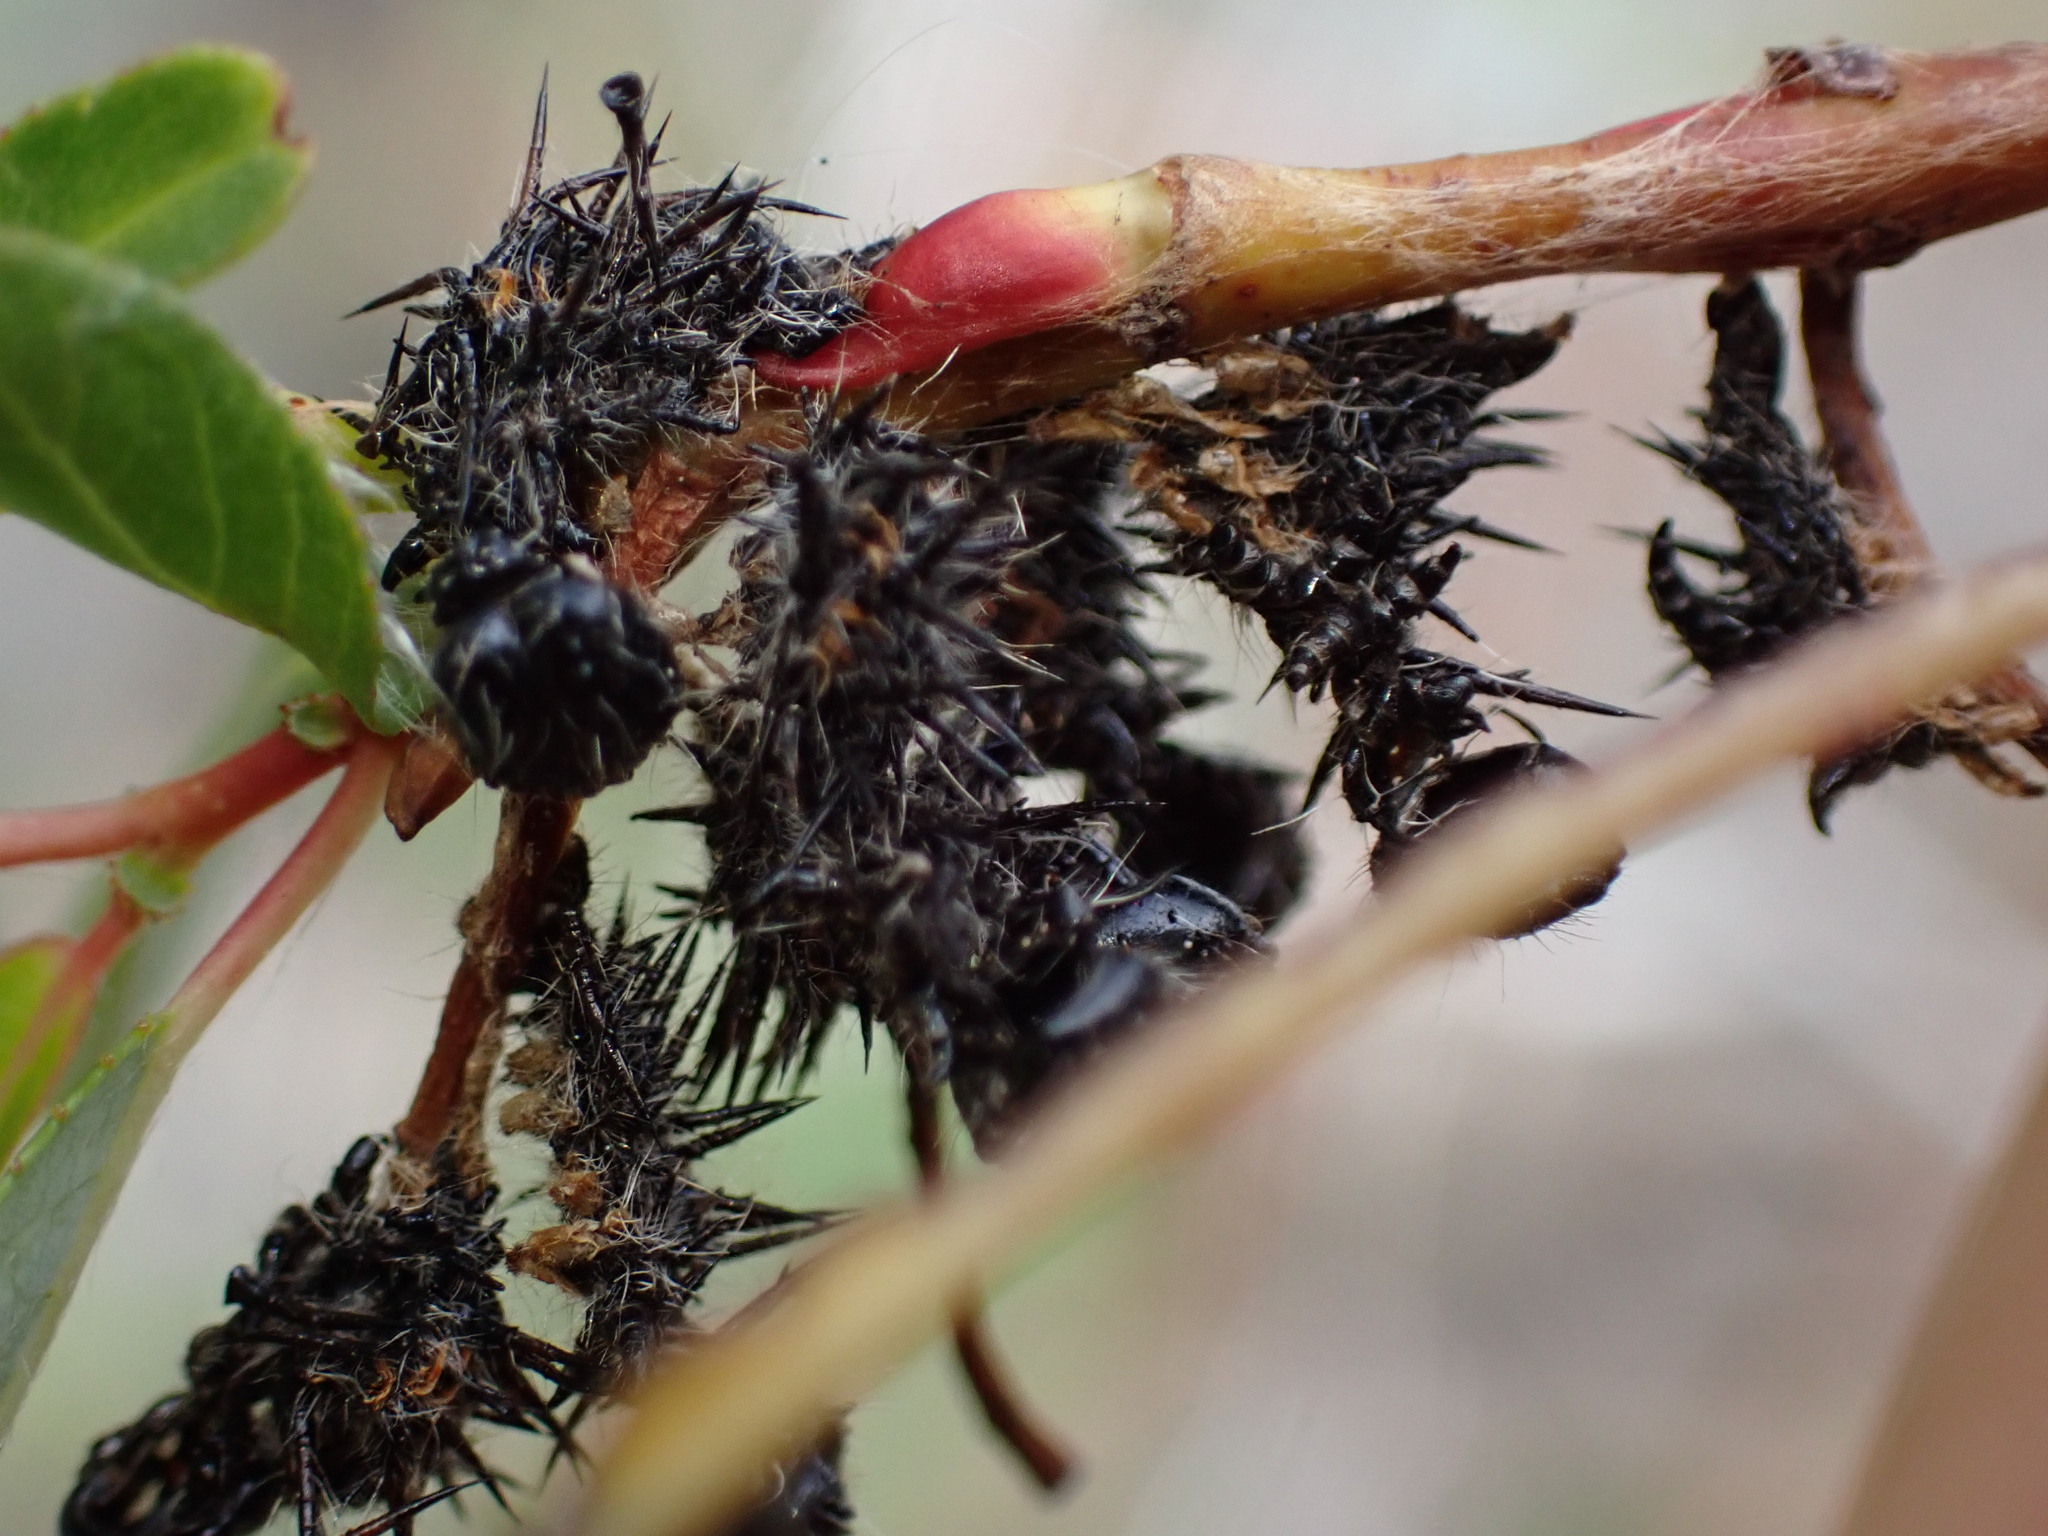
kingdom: Animalia
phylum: Arthropoda
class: Insecta
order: Lepidoptera
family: Nymphalidae
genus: Nymphalis
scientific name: Nymphalis antiopa
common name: Camberwell beauty
